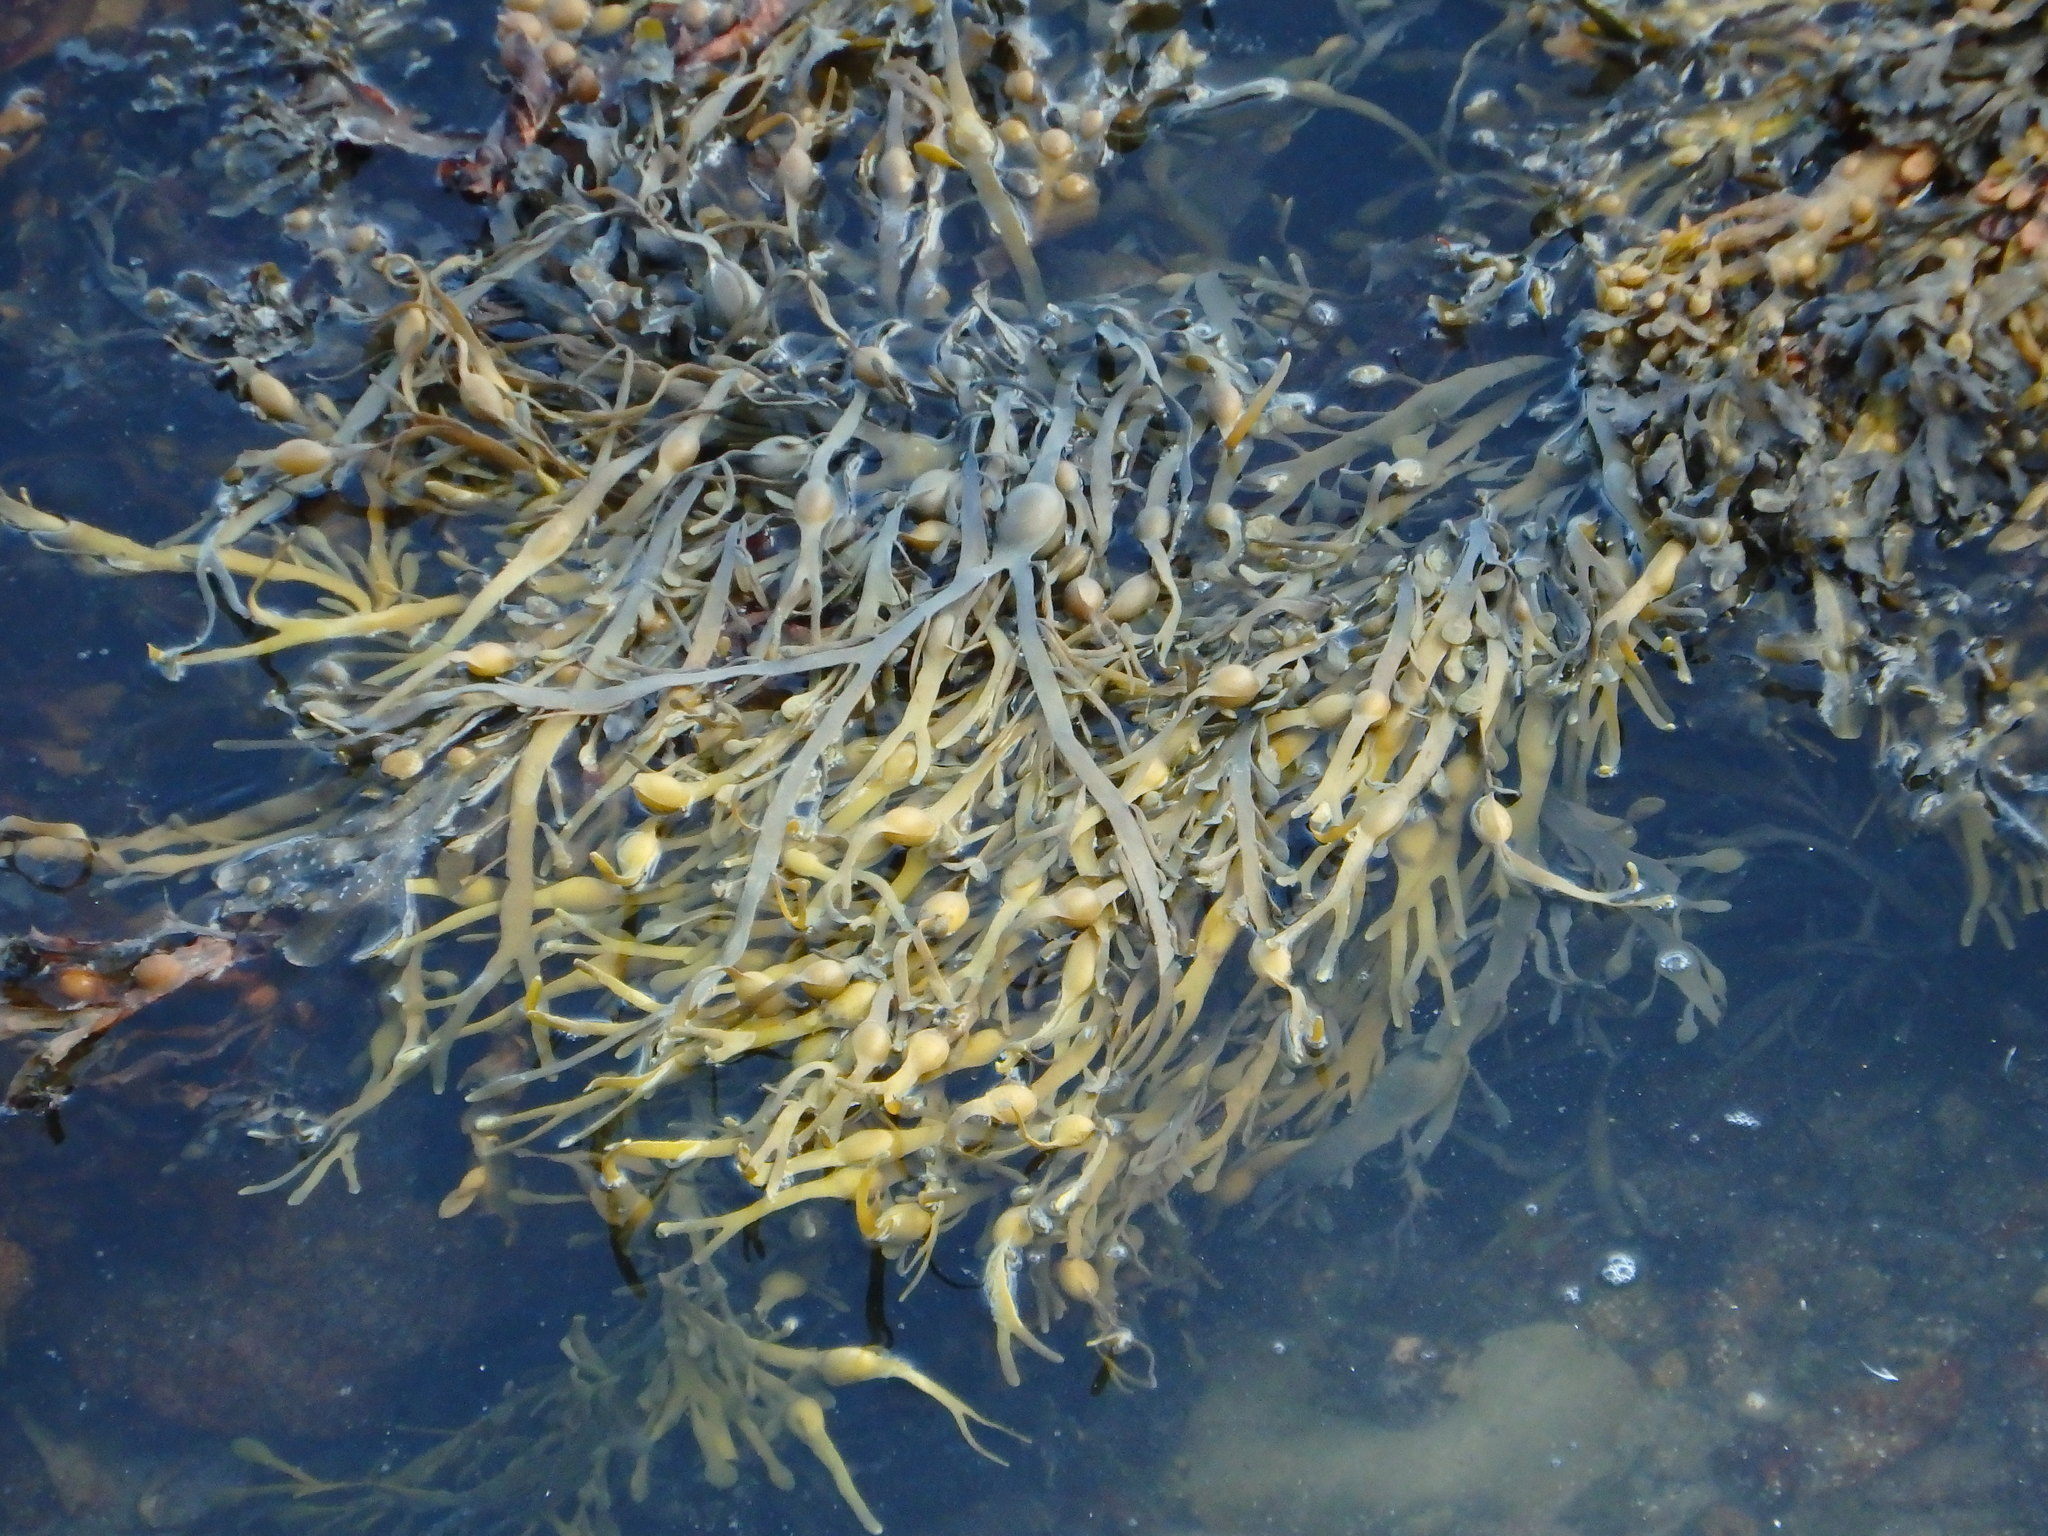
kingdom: Chromista
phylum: Ochrophyta
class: Phaeophyceae
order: Fucales
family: Fucaceae
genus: Ascophyllum
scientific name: Ascophyllum nodosum
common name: Knotted wrack
